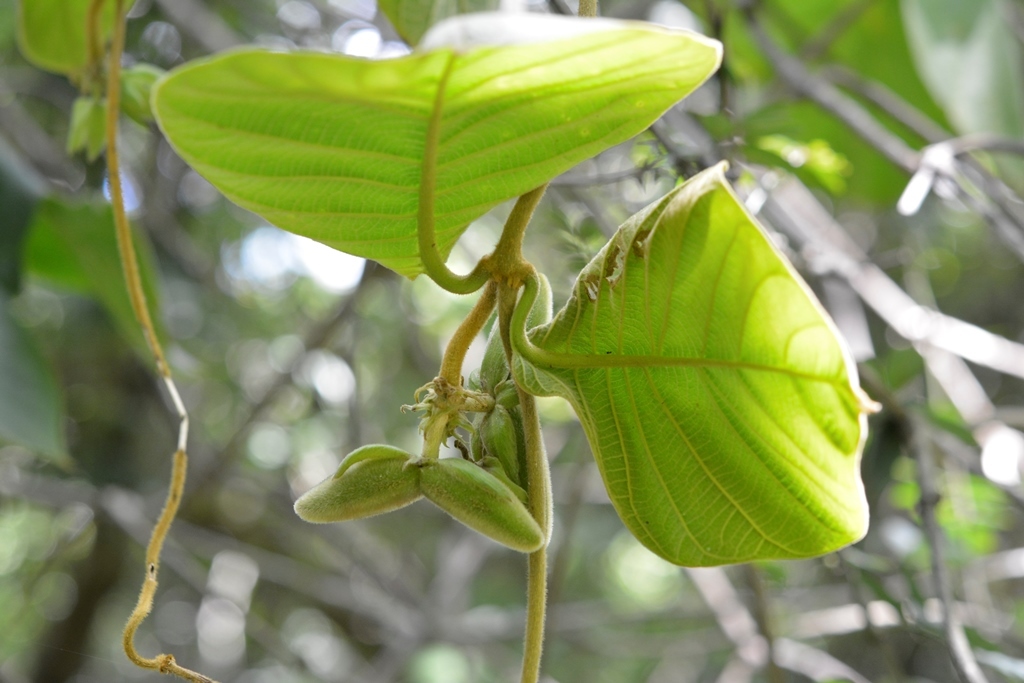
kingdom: Plantae
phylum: Tracheophyta
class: Magnoliopsida
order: Gentianales
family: Apocynaceae
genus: Prestonia
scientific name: Prestonia mexicana
